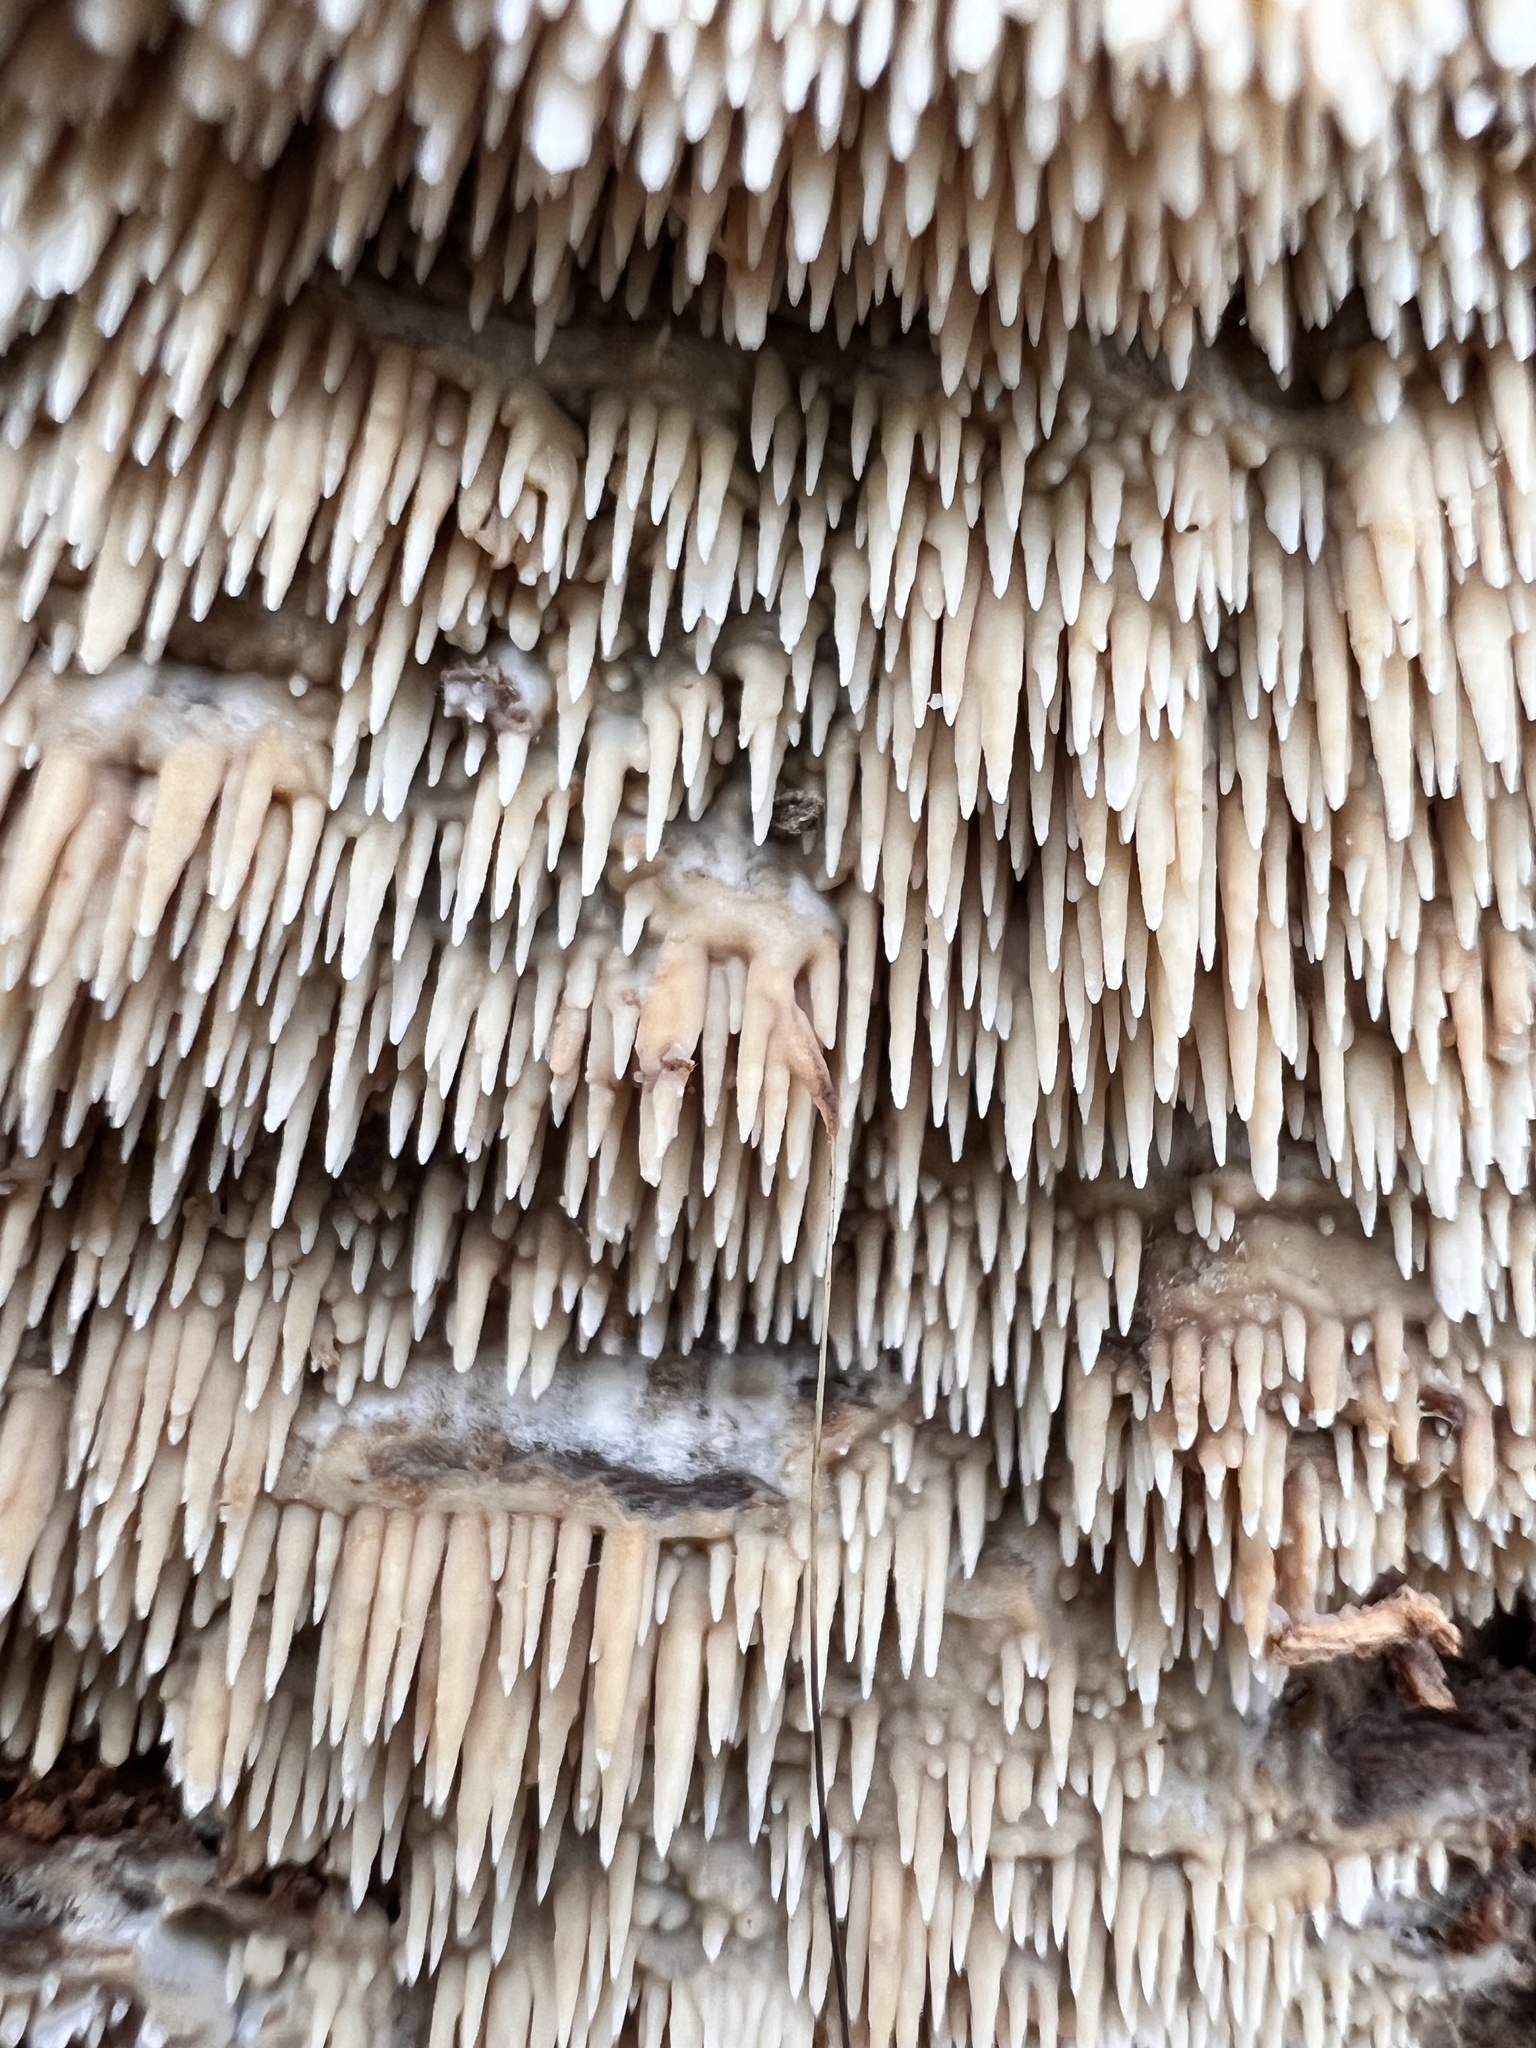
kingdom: Fungi
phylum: Basidiomycota
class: Agaricomycetes
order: Agaricales
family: Radulomycetaceae
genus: Radulomyces
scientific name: Radulomyces copelandii
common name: Asian beauty
